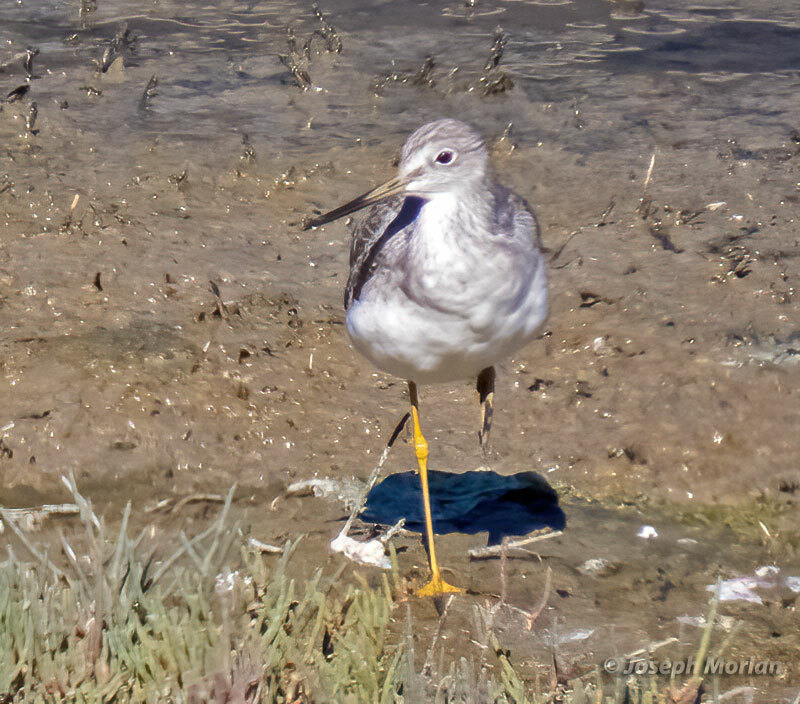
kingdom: Animalia
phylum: Chordata
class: Aves
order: Charadriiformes
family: Scolopacidae
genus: Tringa
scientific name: Tringa melanoleuca
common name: Greater yellowlegs
